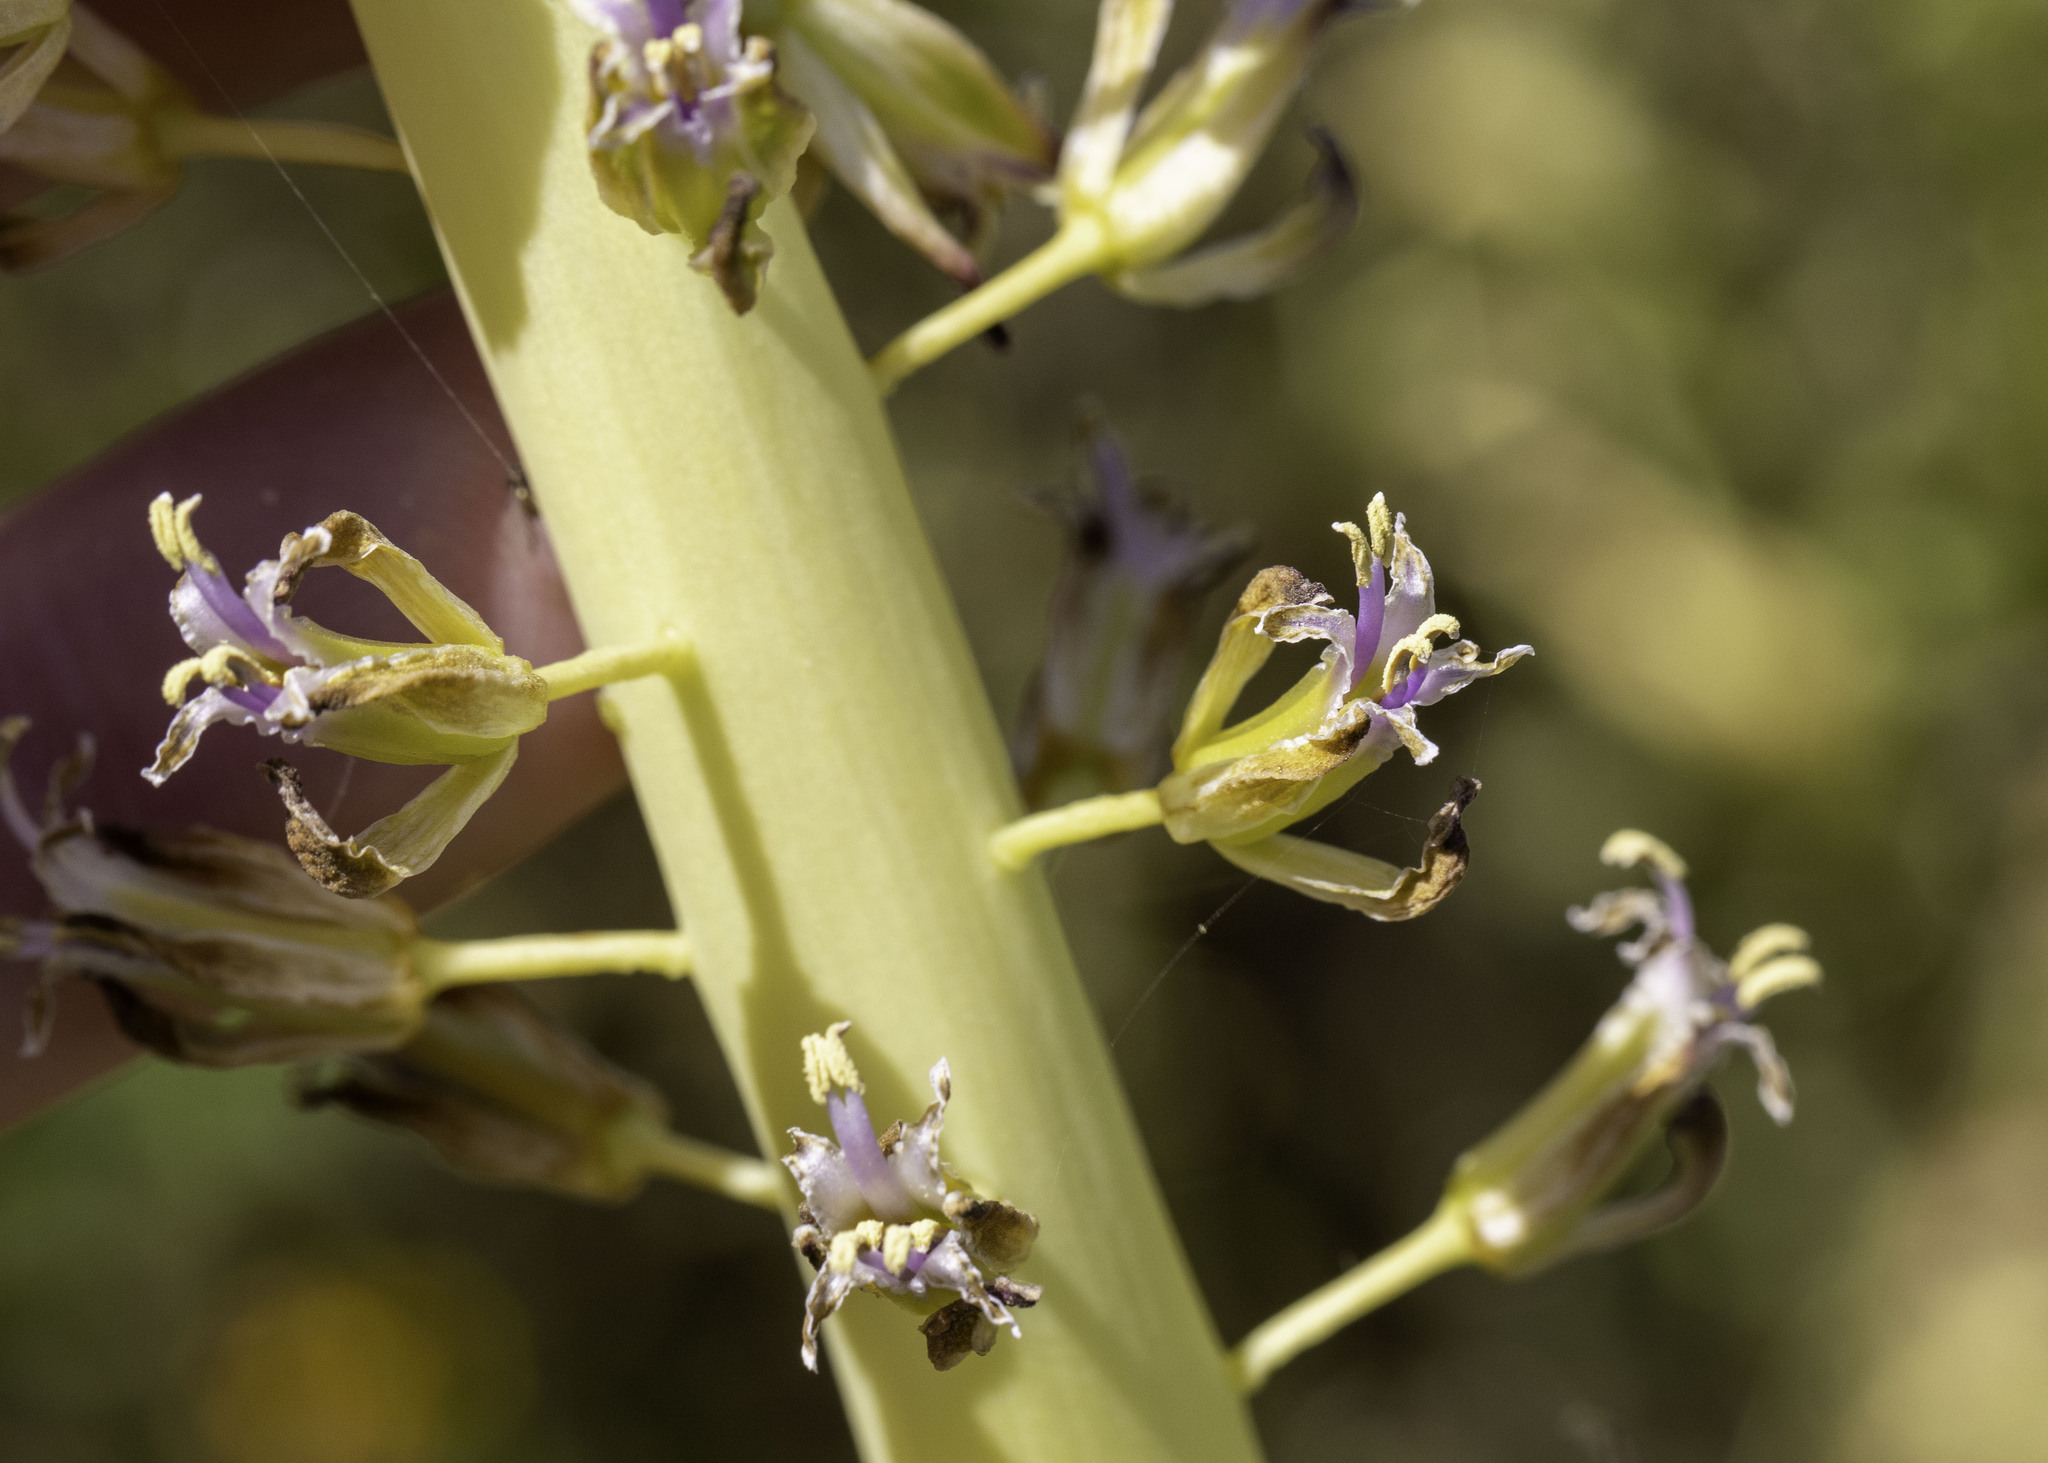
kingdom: Plantae
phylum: Tracheophyta
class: Magnoliopsida
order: Brassicales
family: Brassicaceae
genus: Streptanthus
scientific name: Streptanthus inflatus
